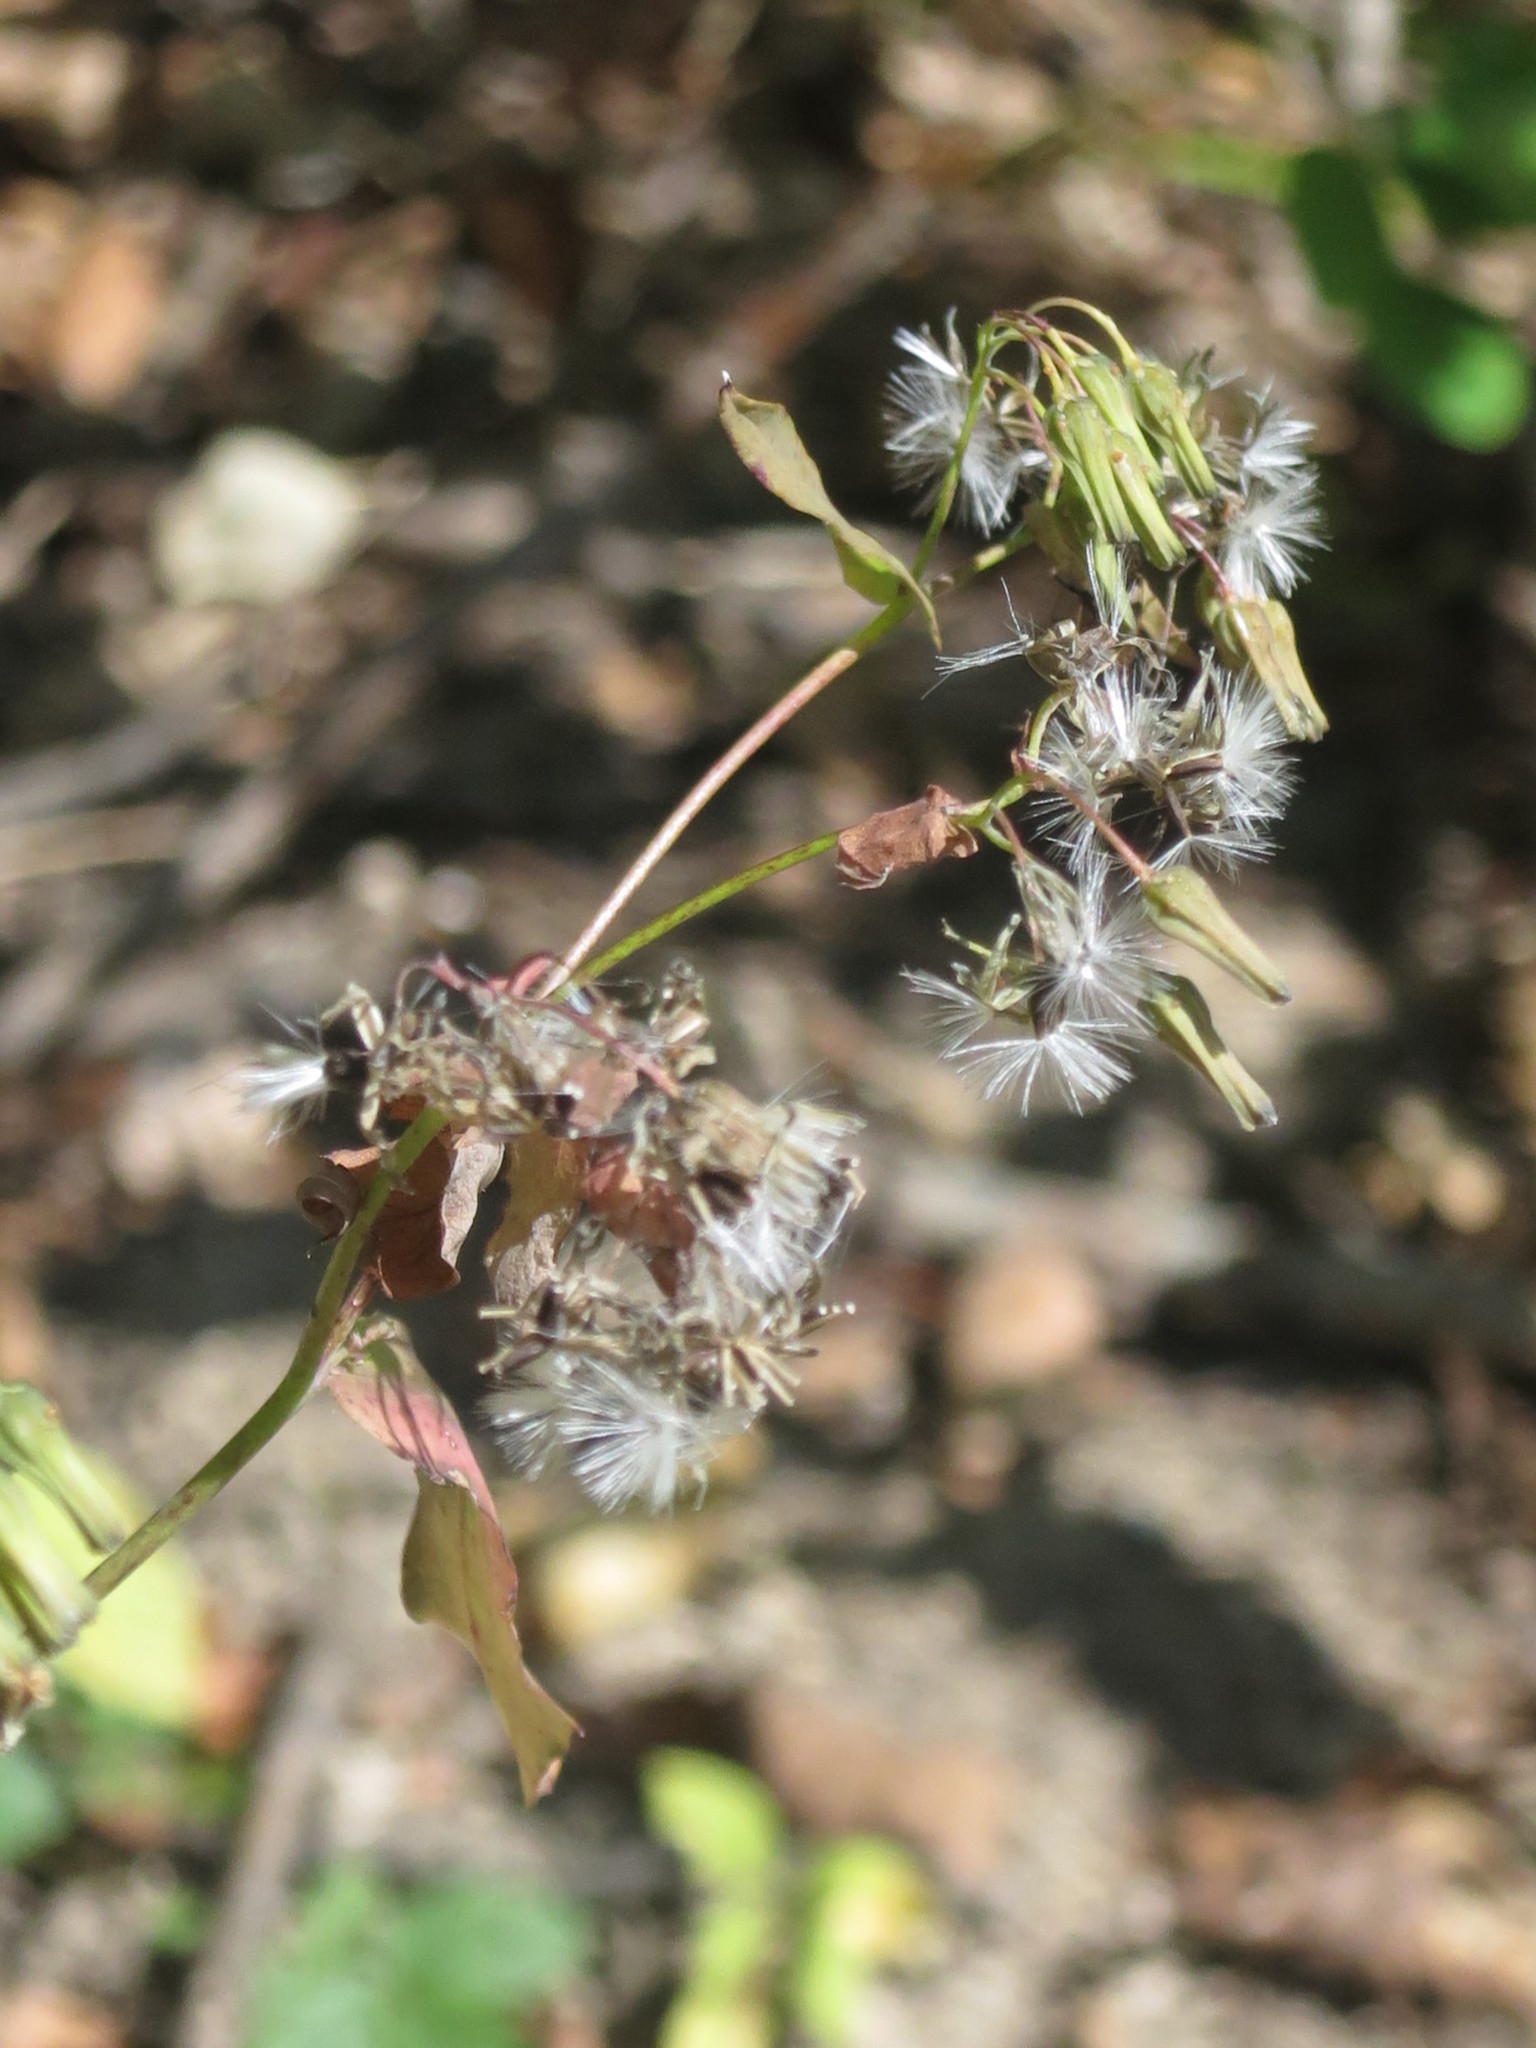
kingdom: Plantae
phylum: Tracheophyta
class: Magnoliopsida
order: Asterales
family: Asteraceae
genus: Crepidiastrum
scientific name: Crepidiastrum denticulatum
